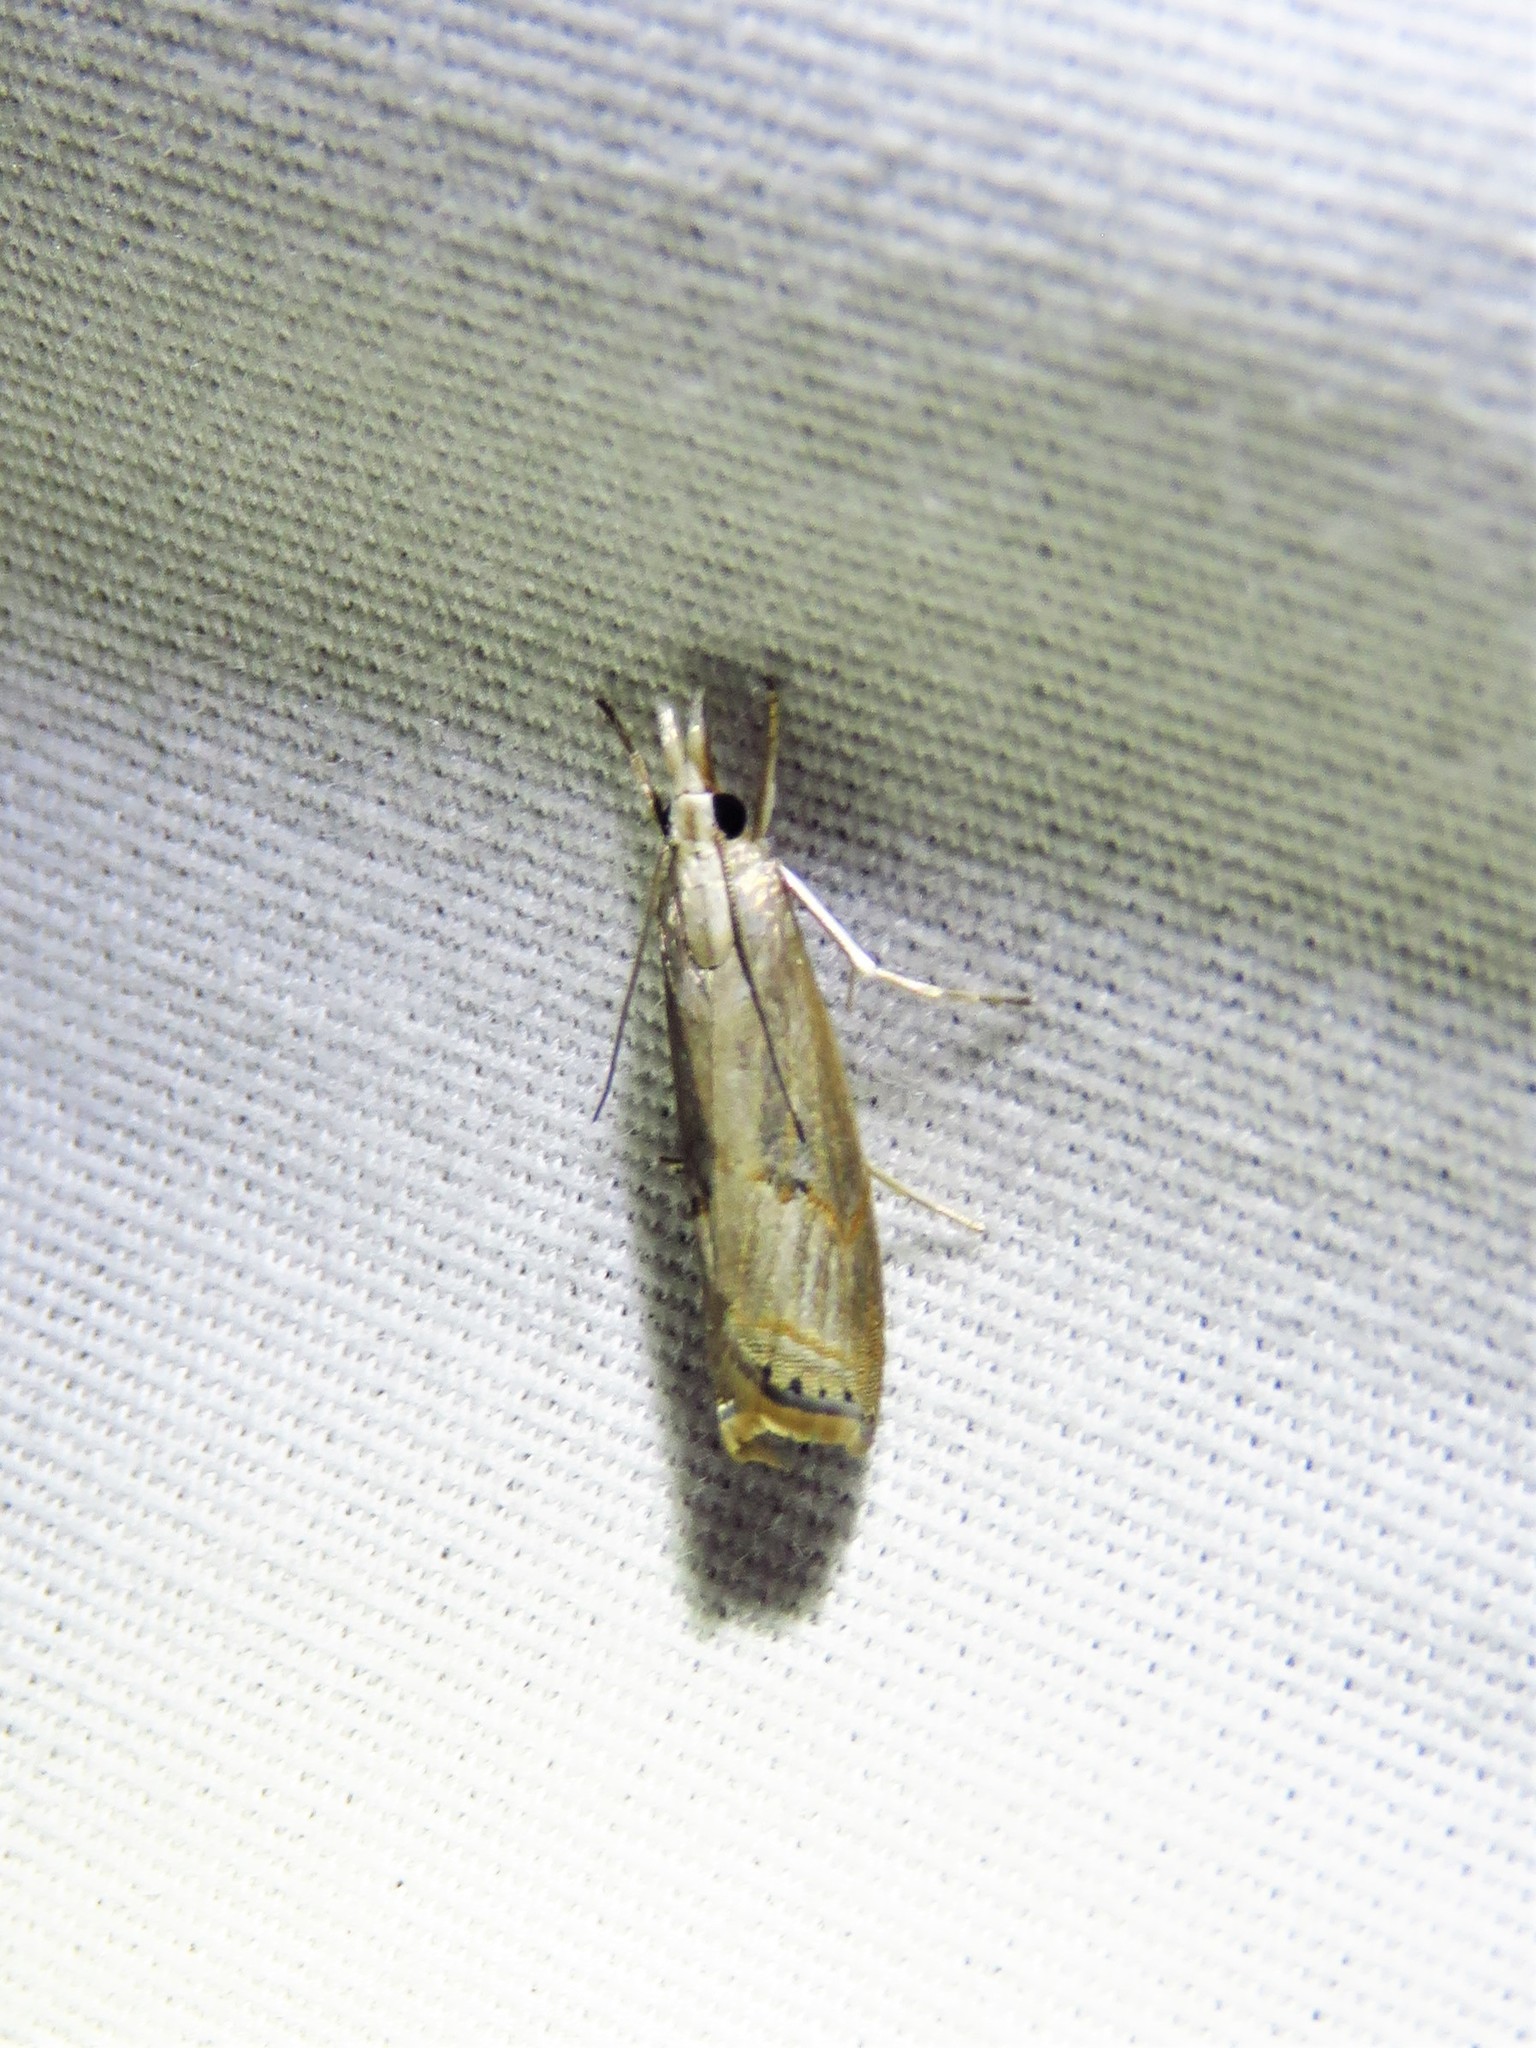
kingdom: Animalia
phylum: Arthropoda
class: Insecta
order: Lepidoptera
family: Crambidae
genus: Parapediasia
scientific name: Parapediasia teterellus
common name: Bluegrass webworm moth
